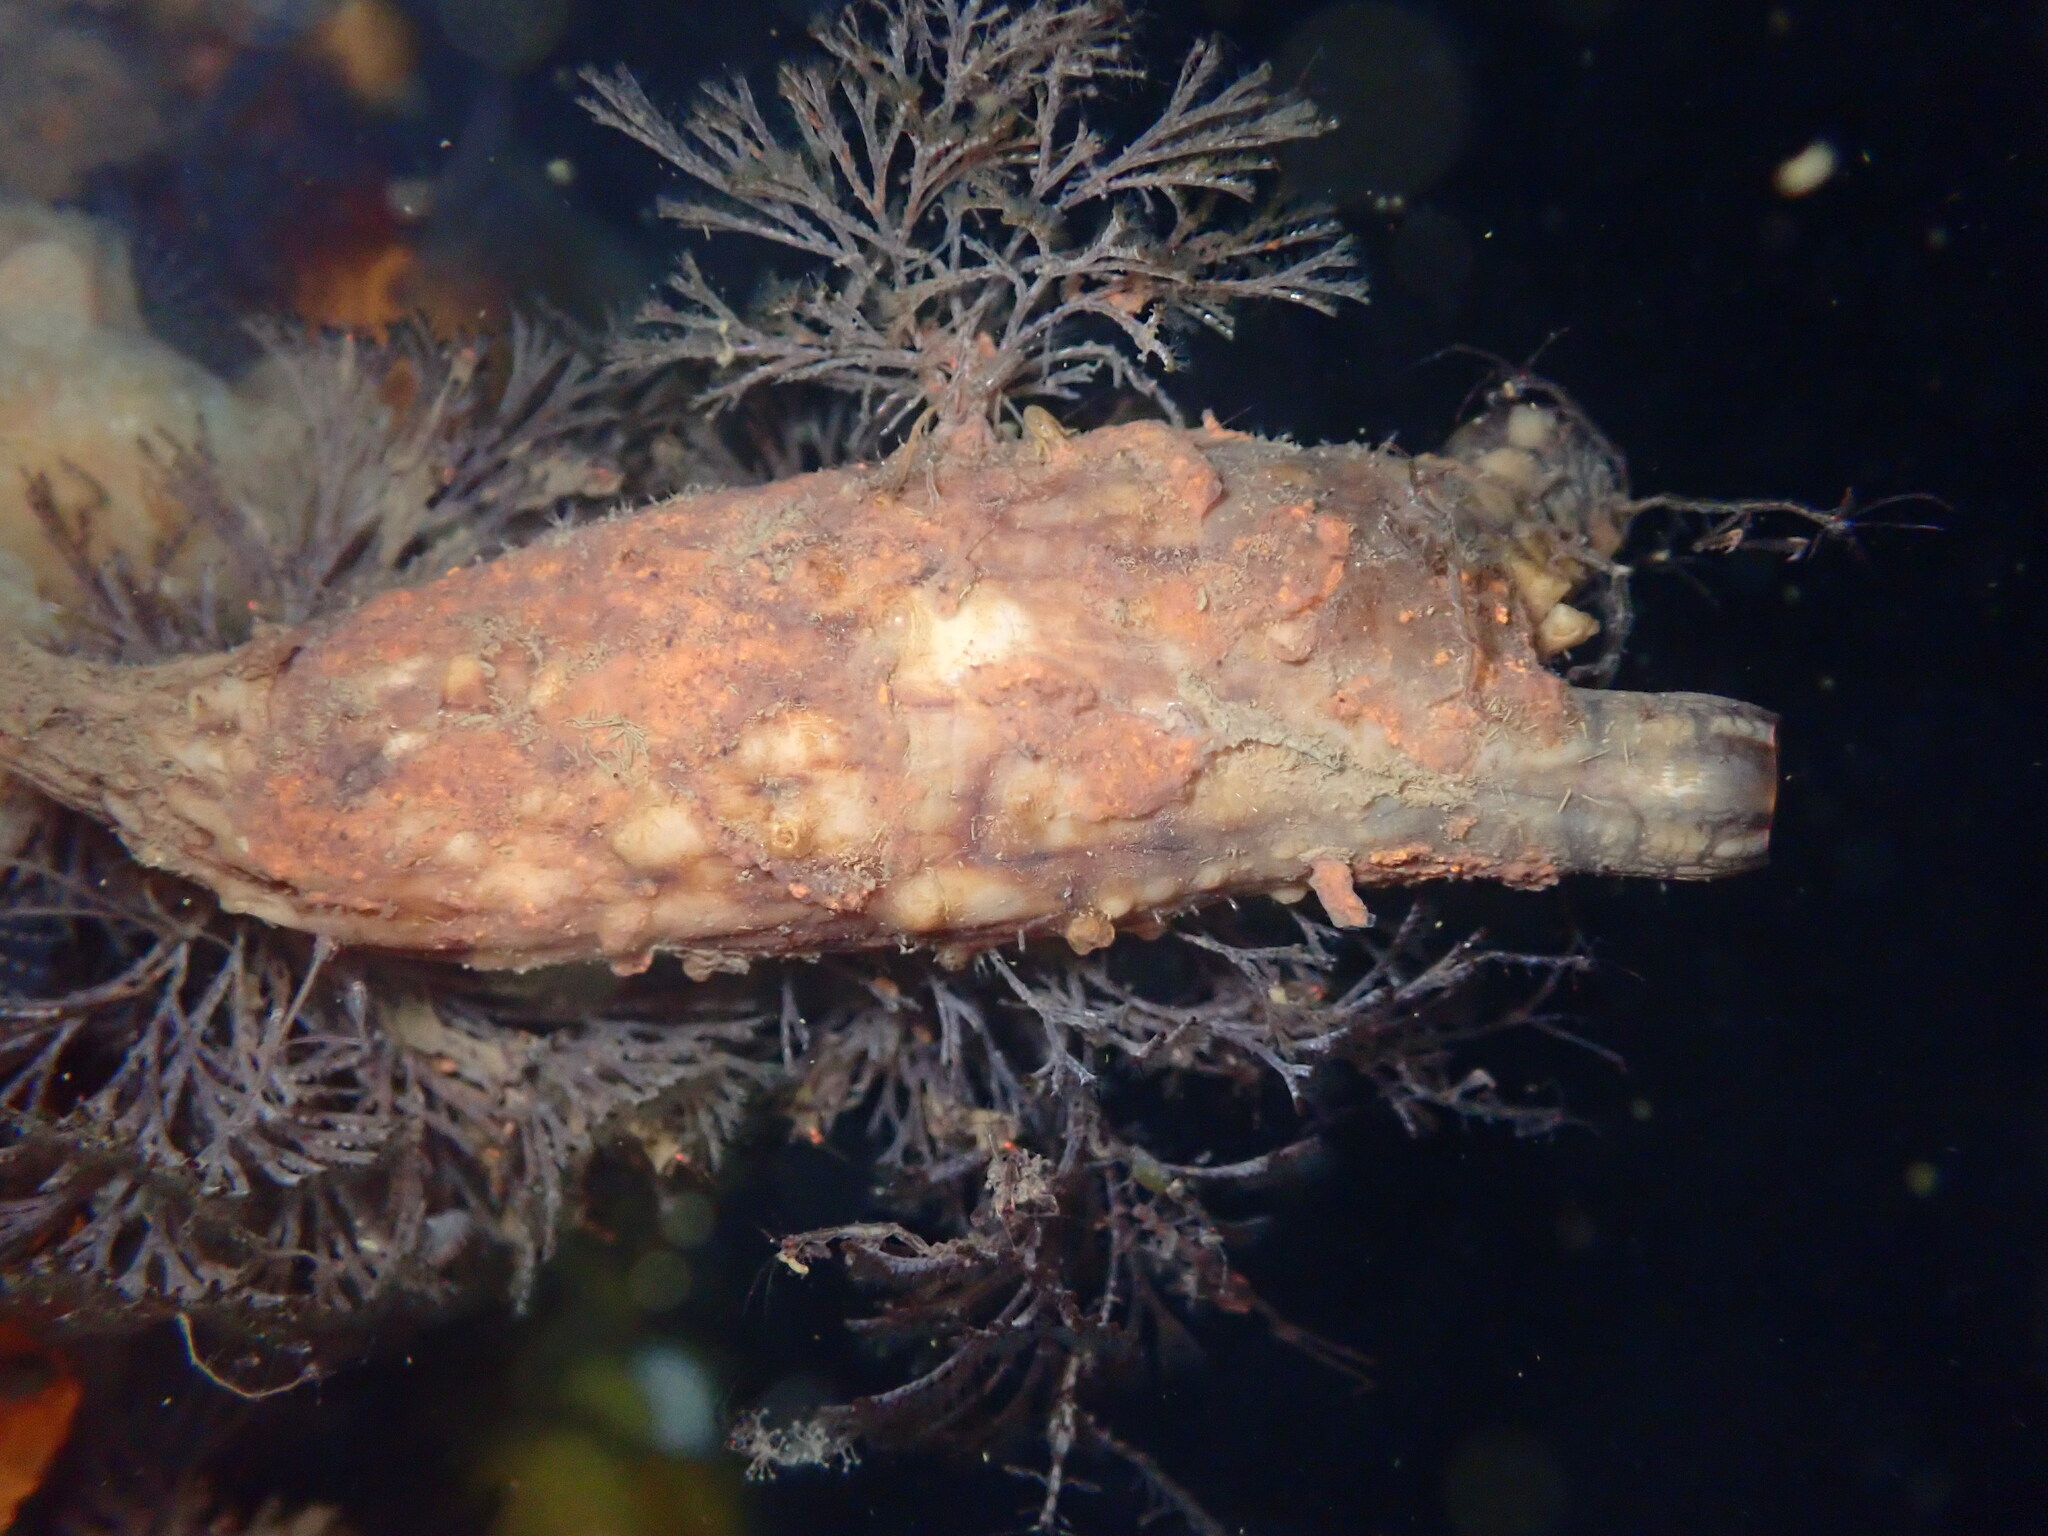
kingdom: Animalia
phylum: Chordata
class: Ascidiacea
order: Stolidobranchia
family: Styelidae
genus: Styela
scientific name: Styela clava
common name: Leathery sea squirt
